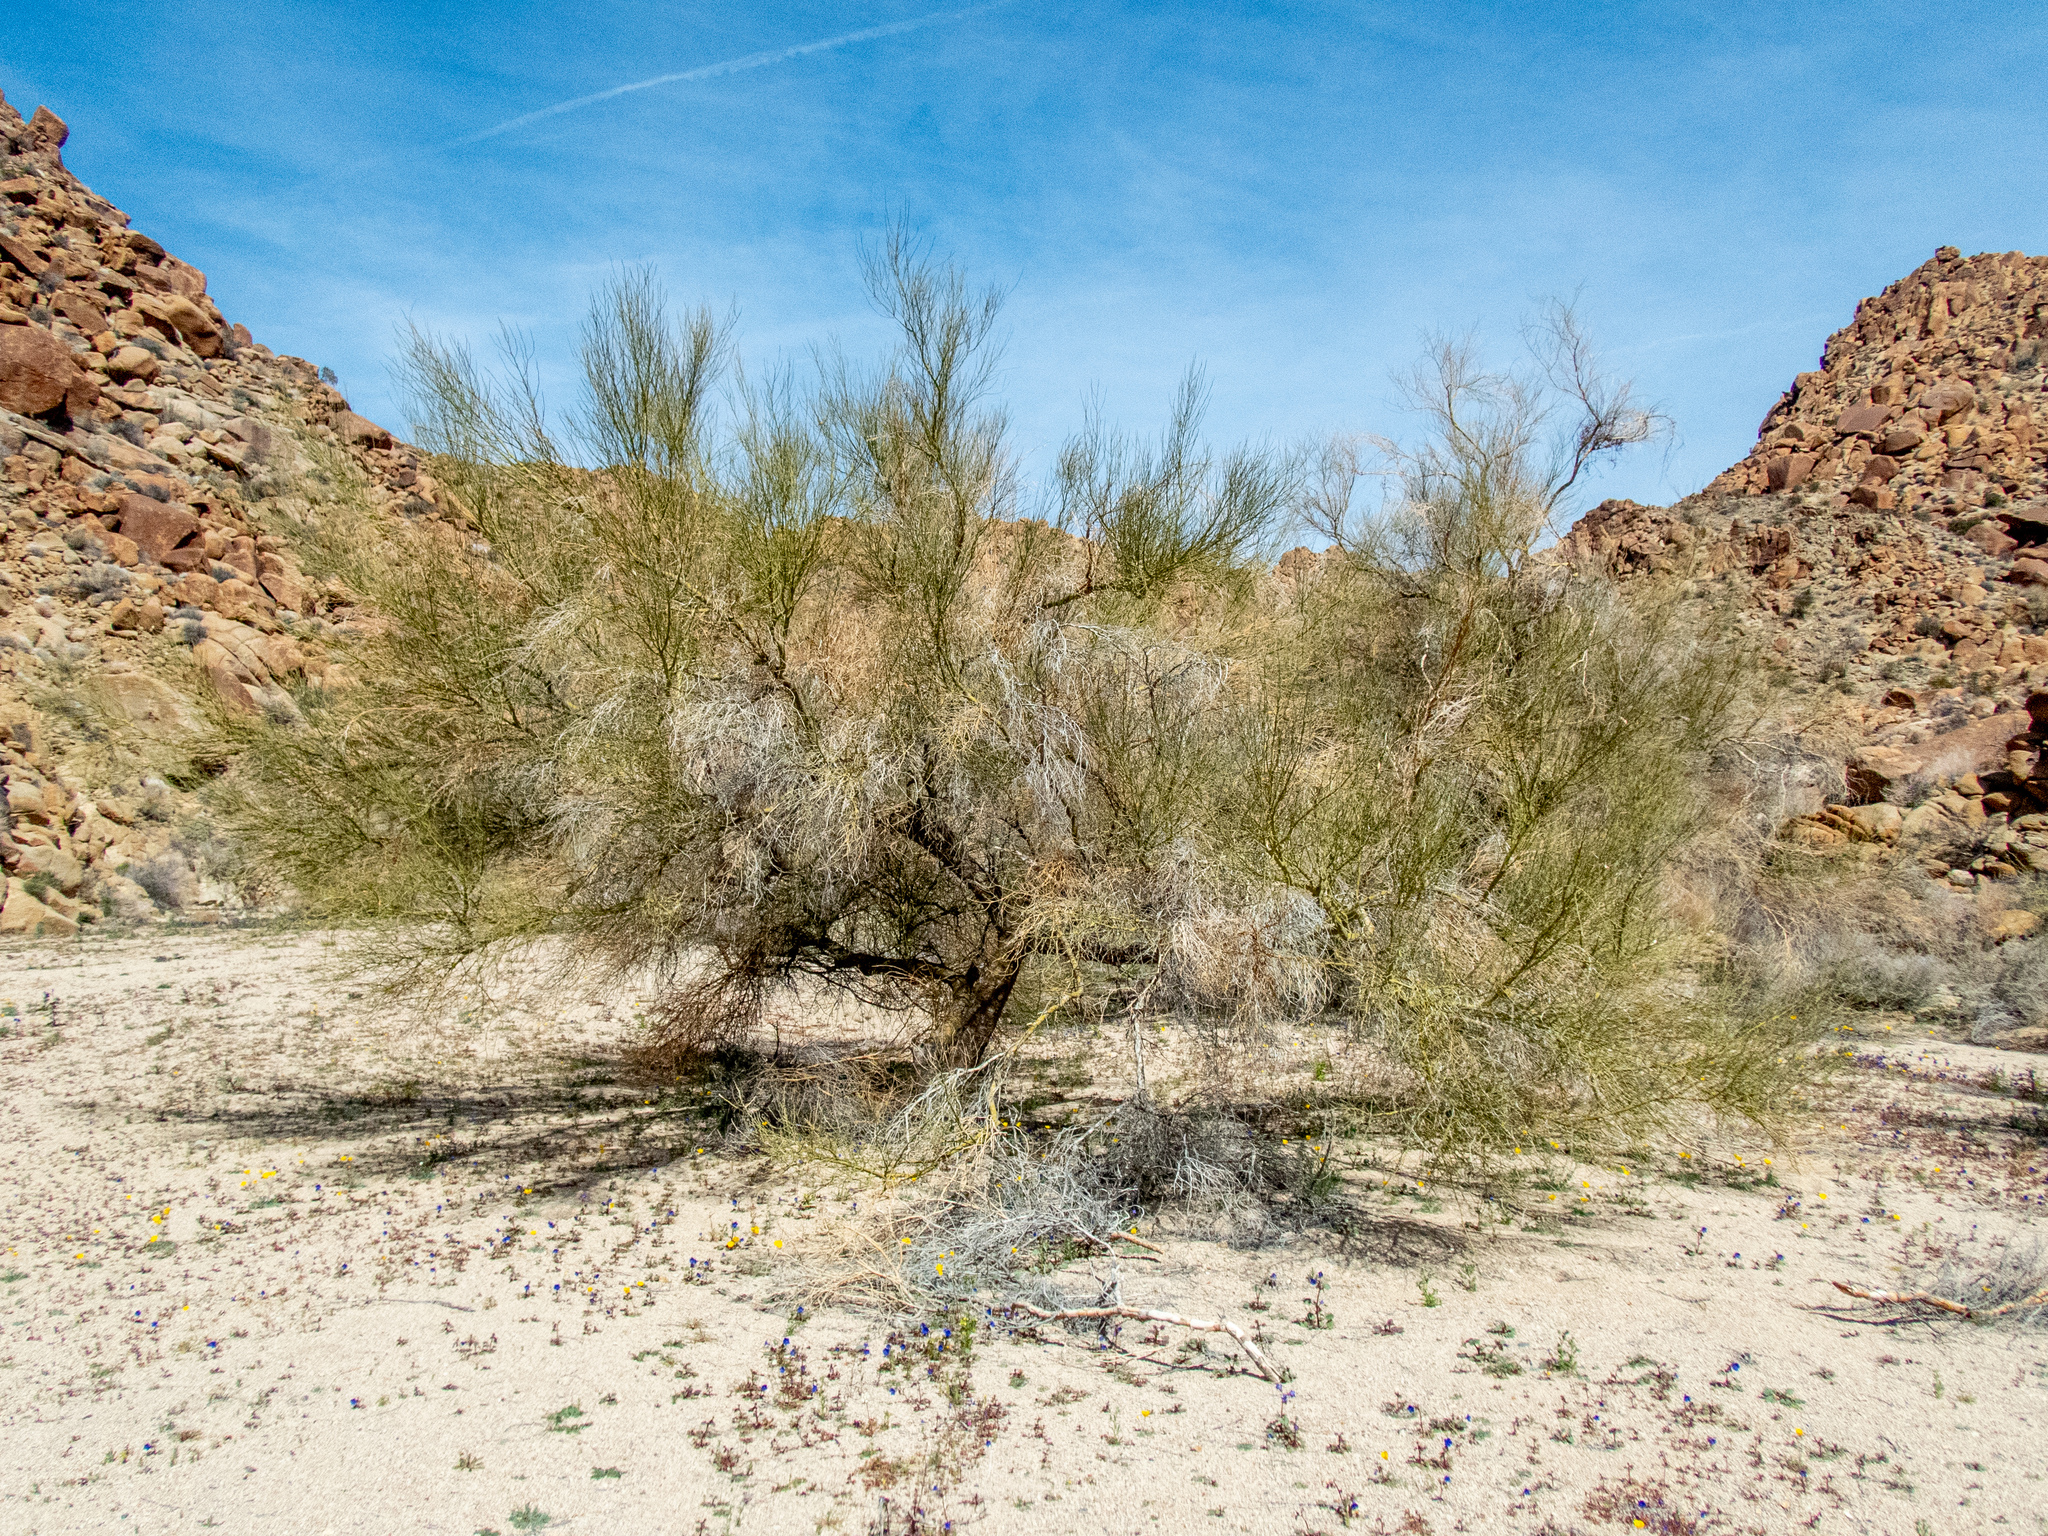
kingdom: Plantae
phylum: Tracheophyta
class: Magnoliopsida
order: Fabales
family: Fabaceae
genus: Parkinsonia
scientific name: Parkinsonia florida
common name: Blue paloverde
